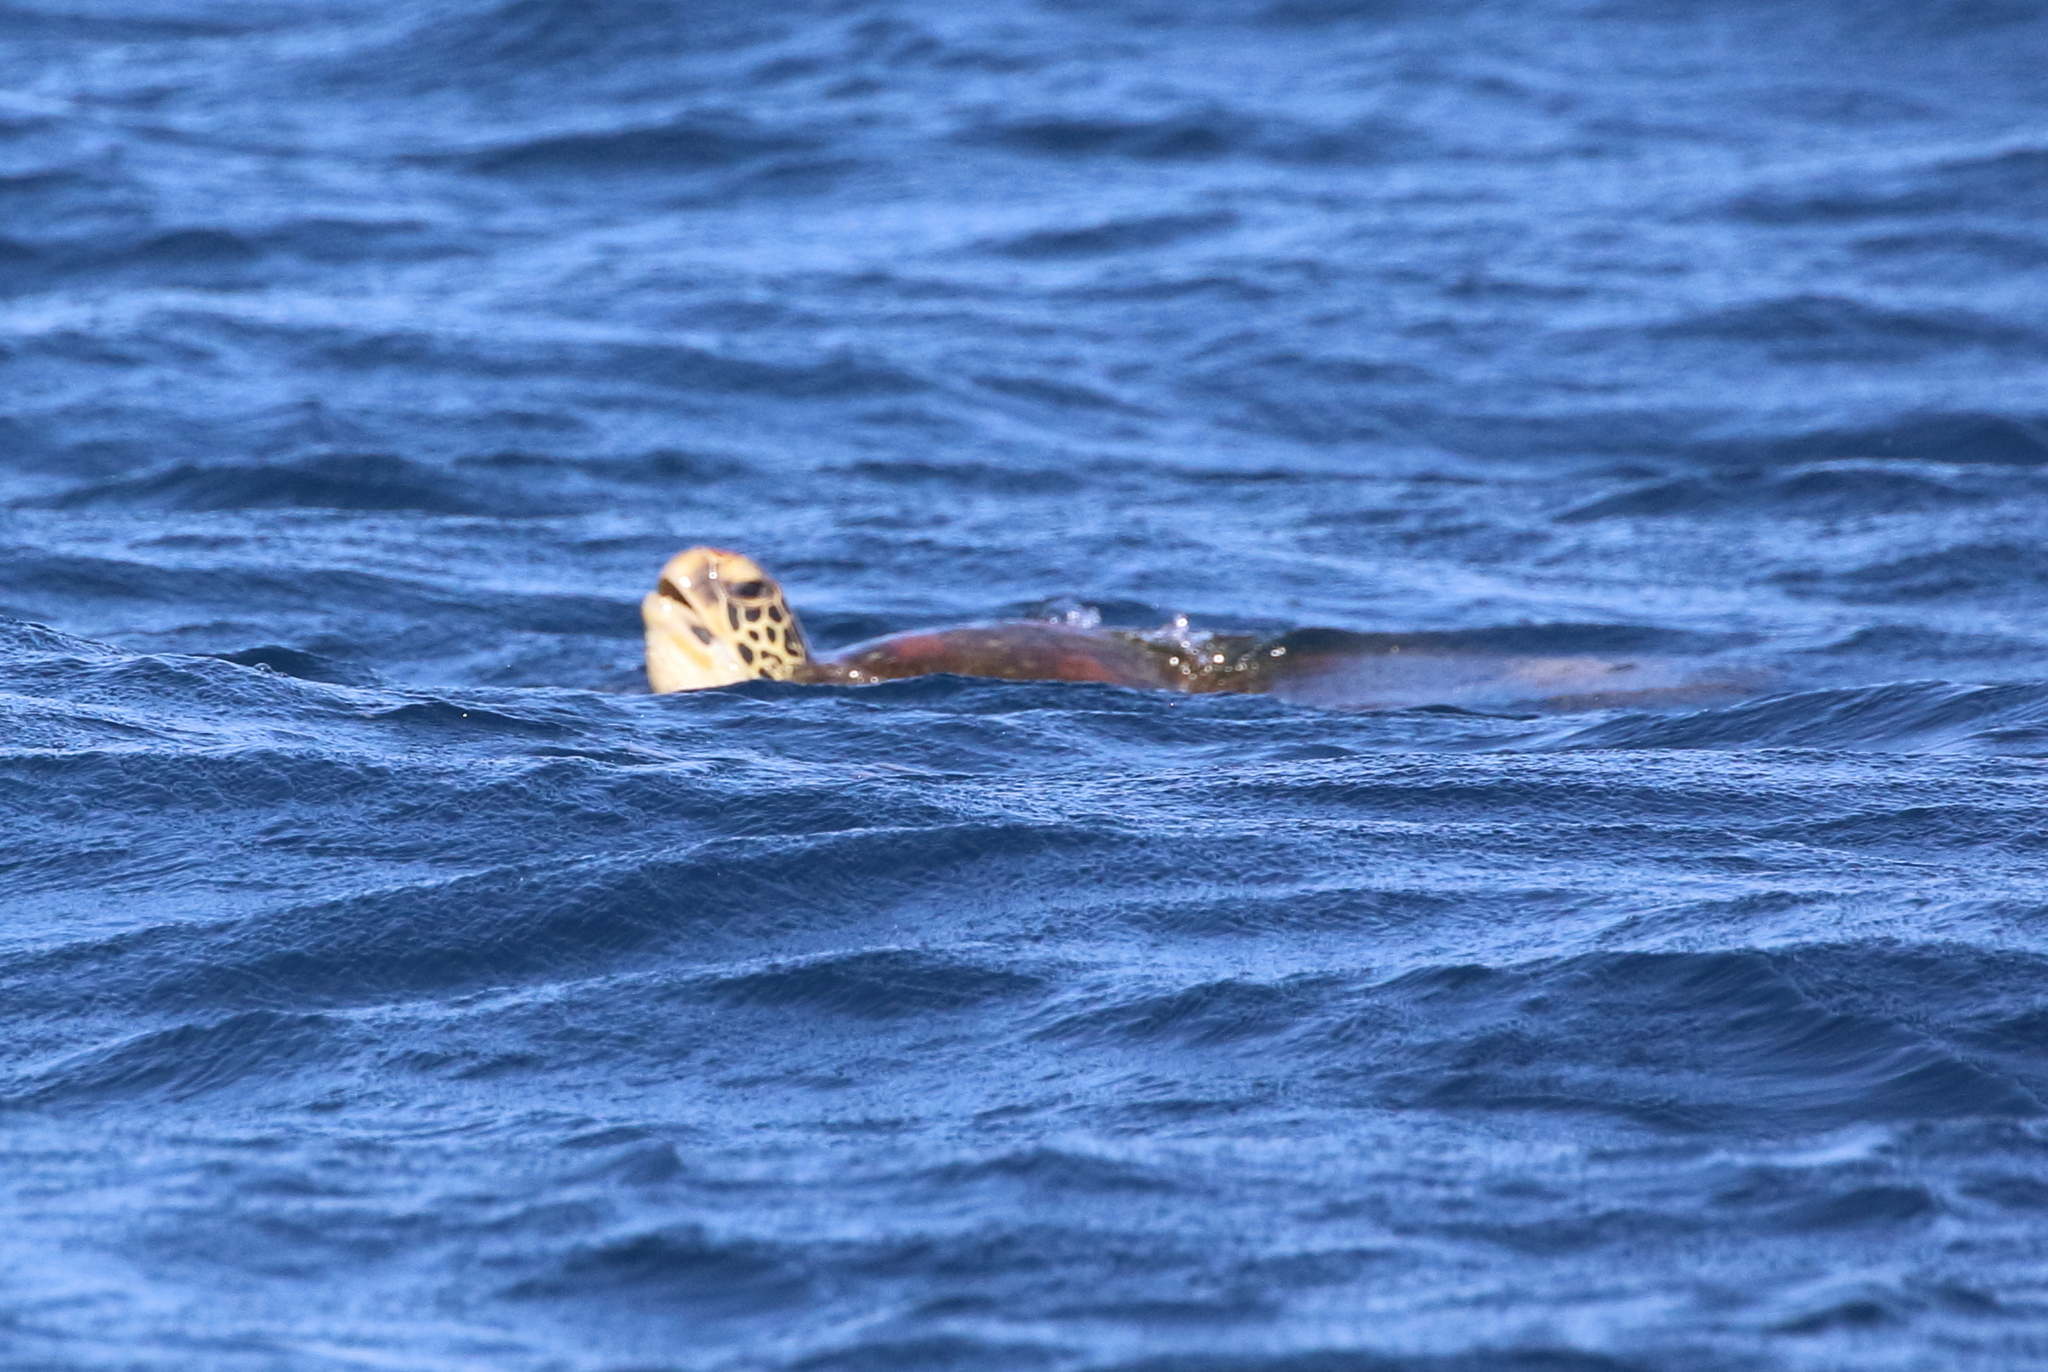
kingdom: Animalia
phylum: Chordata
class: Testudines
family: Cheloniidae
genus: Chelonia
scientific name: Chelonia mydas
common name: Green turtle
